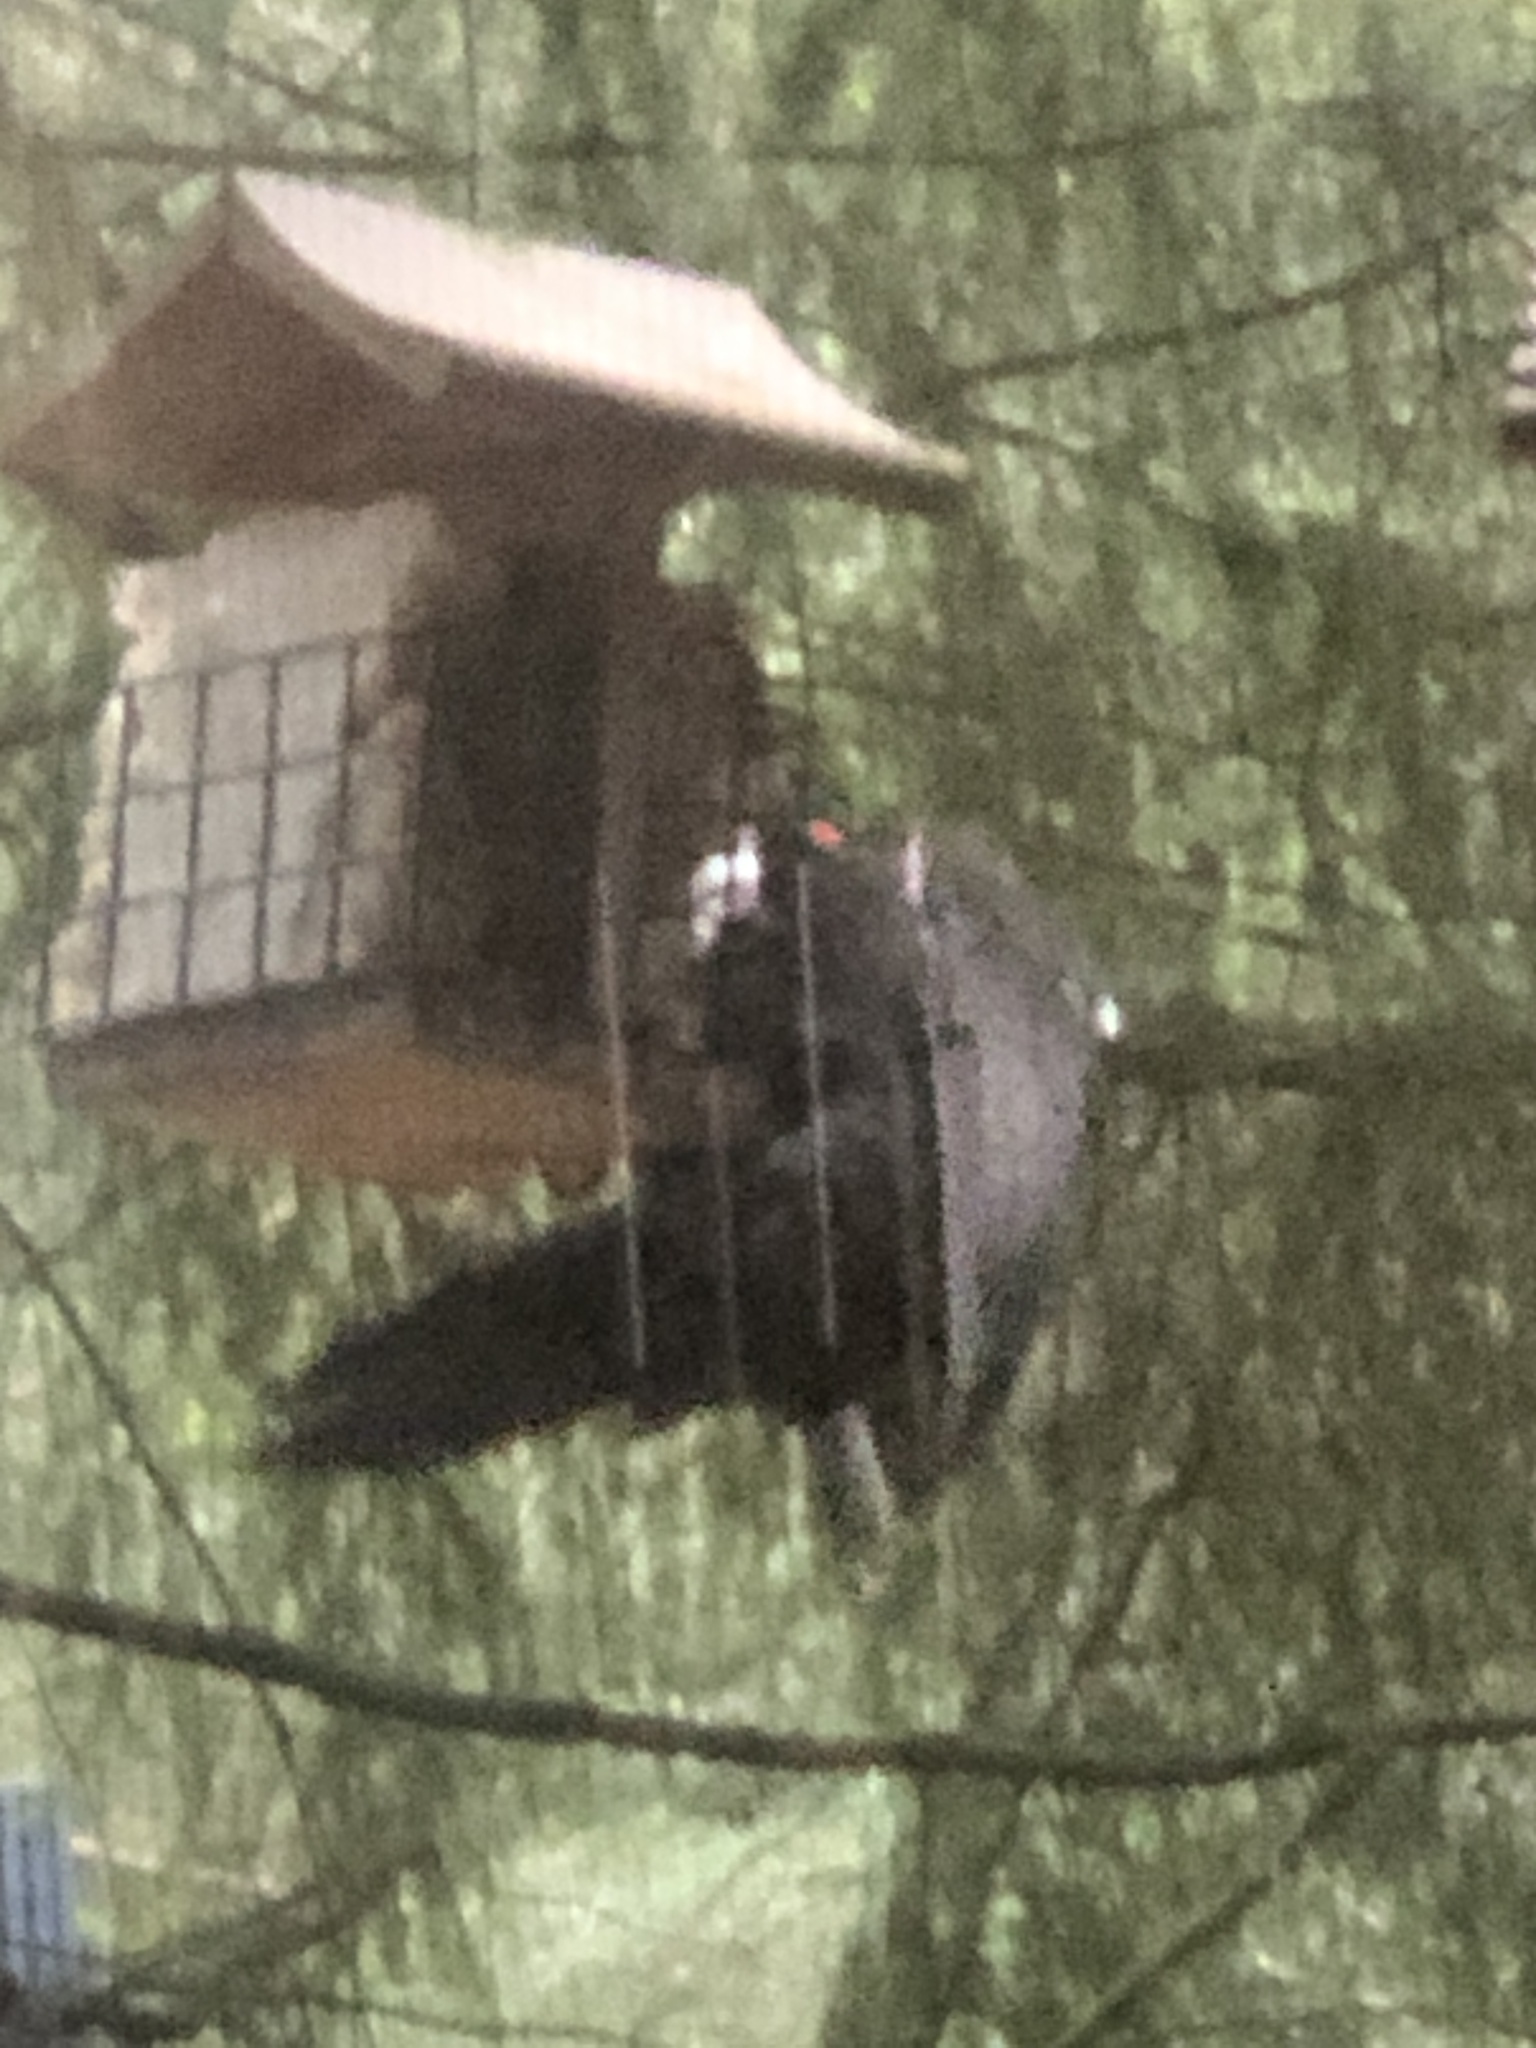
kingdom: Animalia
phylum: Chordata
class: Aves
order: Piciformes
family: Picidae
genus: Dryocopus
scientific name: Dryocopus pileatus
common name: Pileated woodpecker
